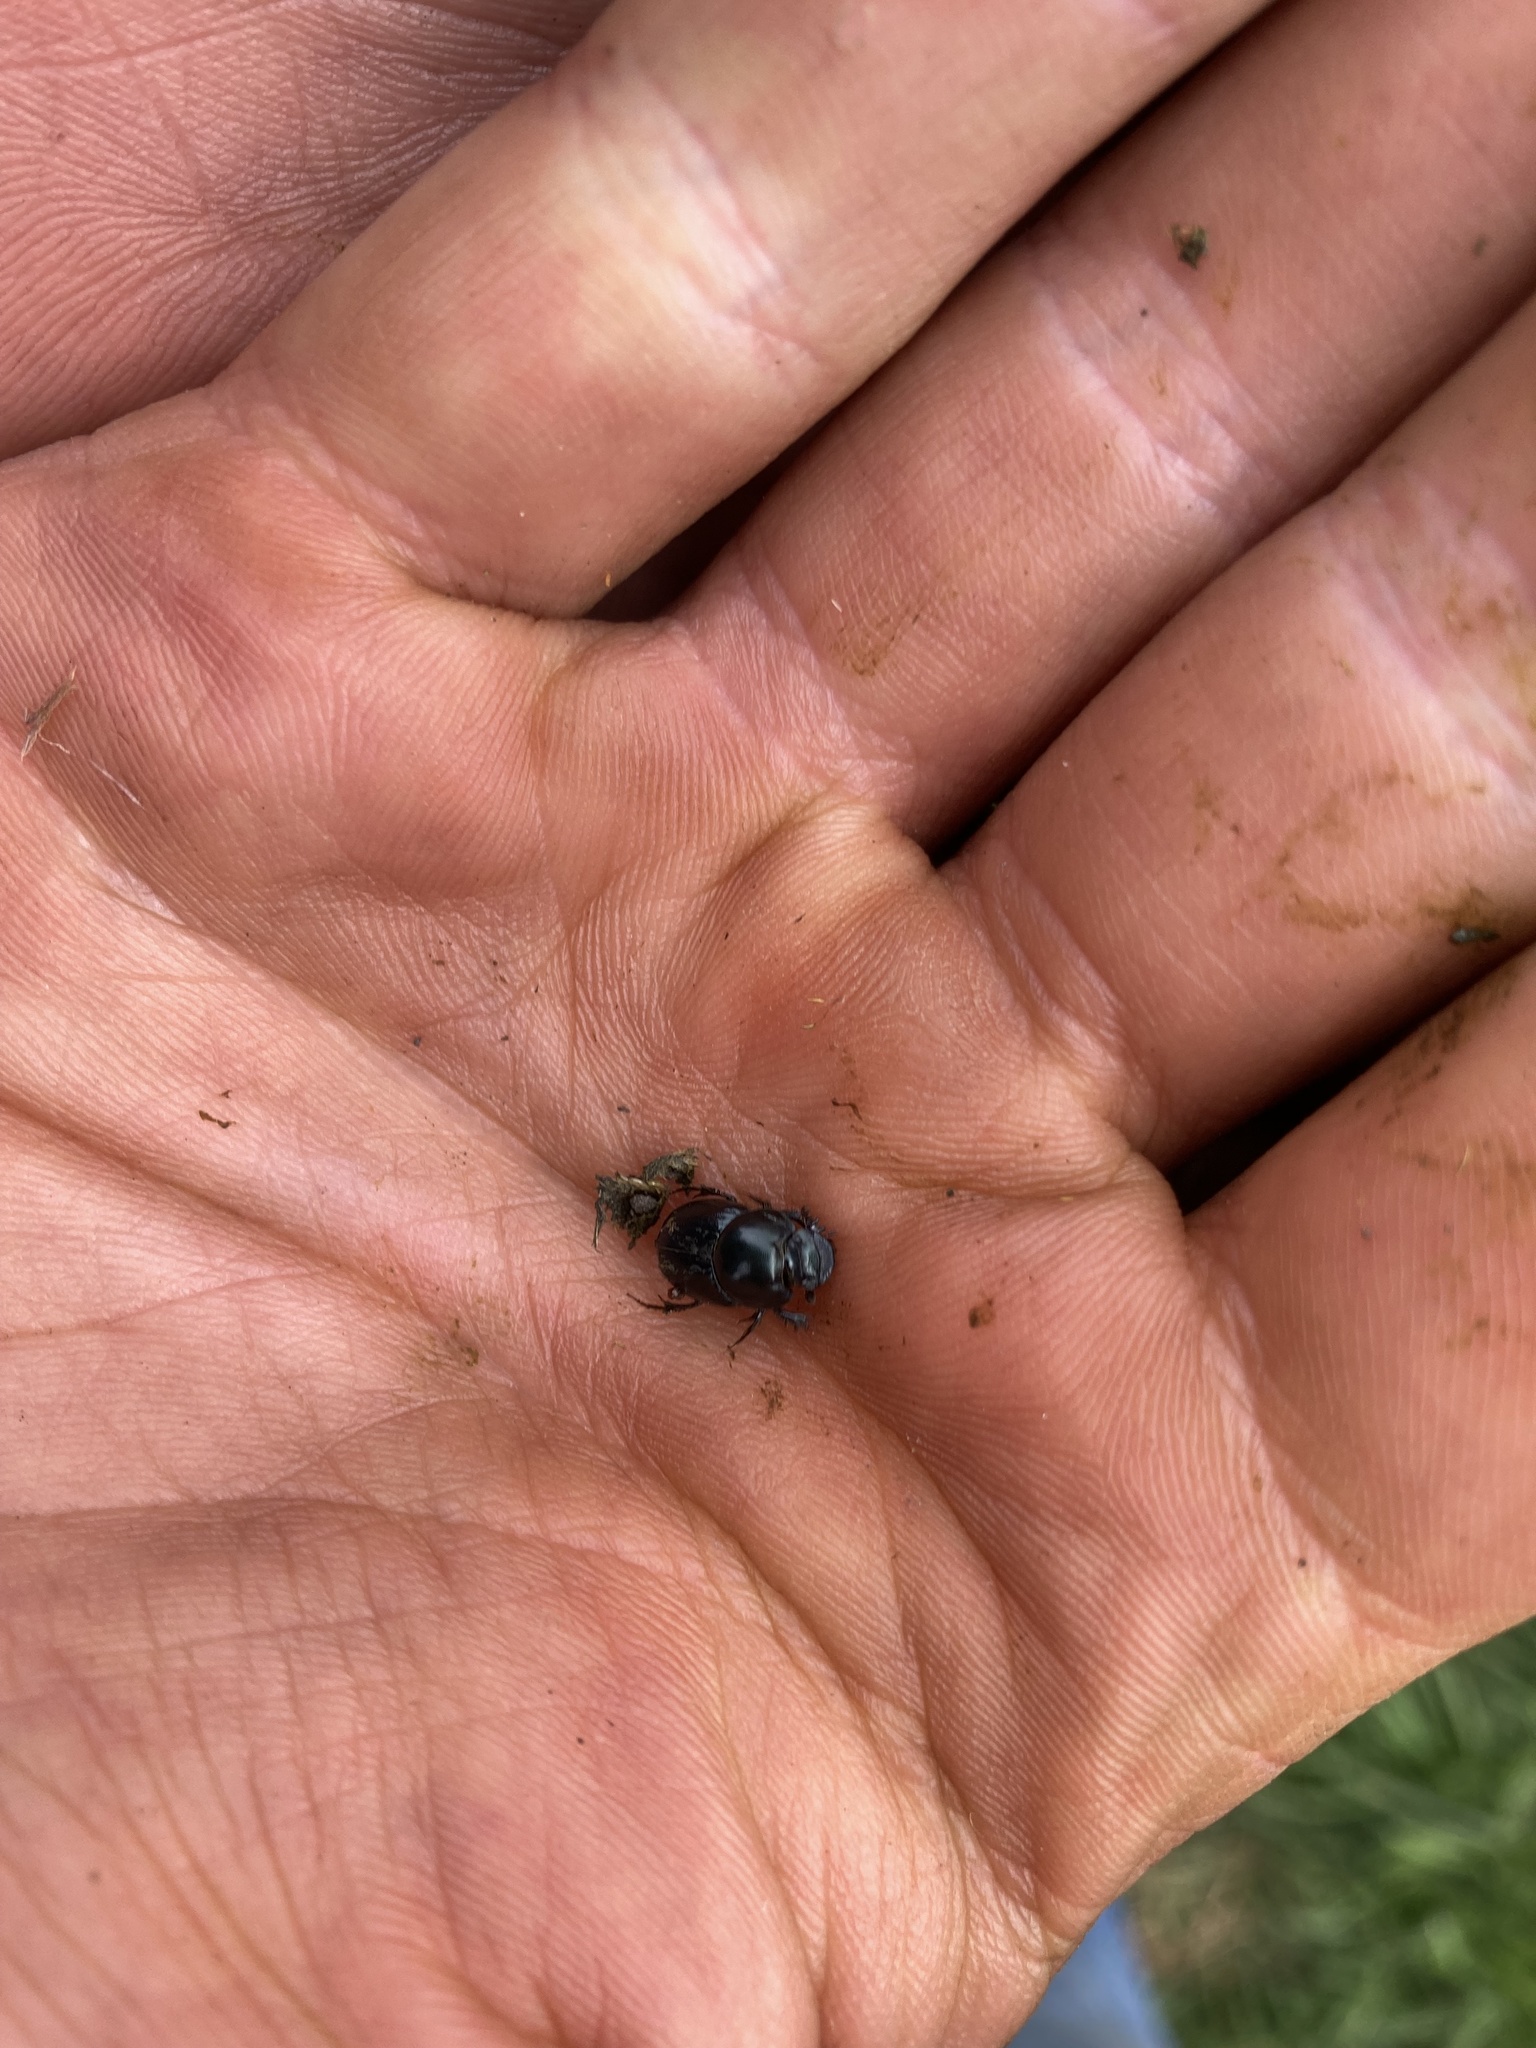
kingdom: Animalia
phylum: Arthropoda
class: Insecta
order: Coleoptera
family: Scarabaeidae
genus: Onthophagus
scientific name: Onthophagus curvicornis
